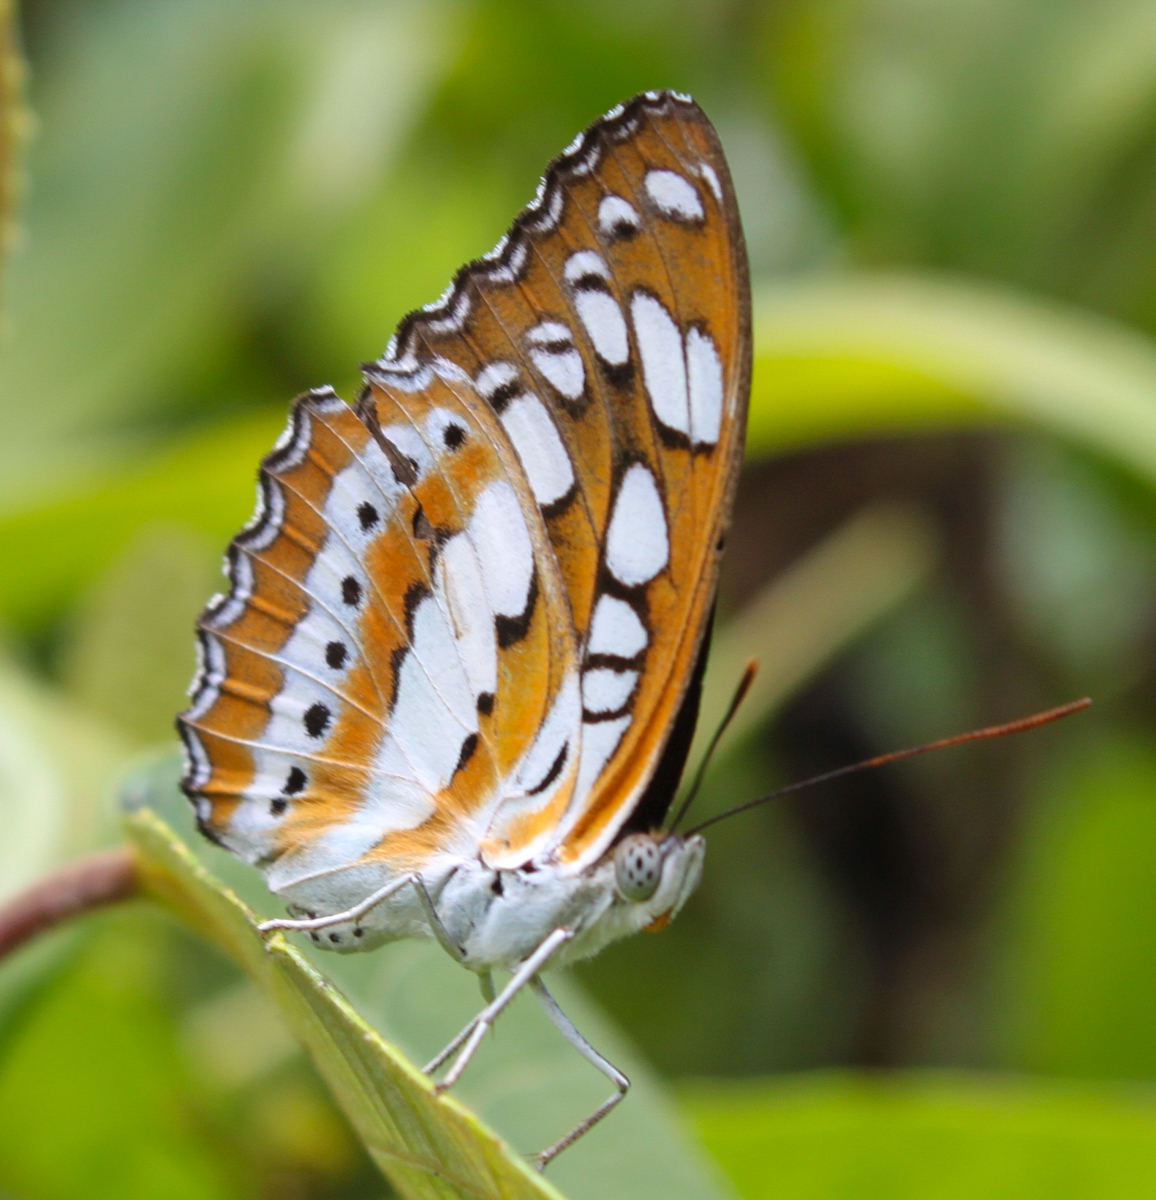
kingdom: Animalia
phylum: Arthropoda
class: Insecta
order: Lepidoptera
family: Nymphalidae
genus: Parathyma
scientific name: Parathyma perius
